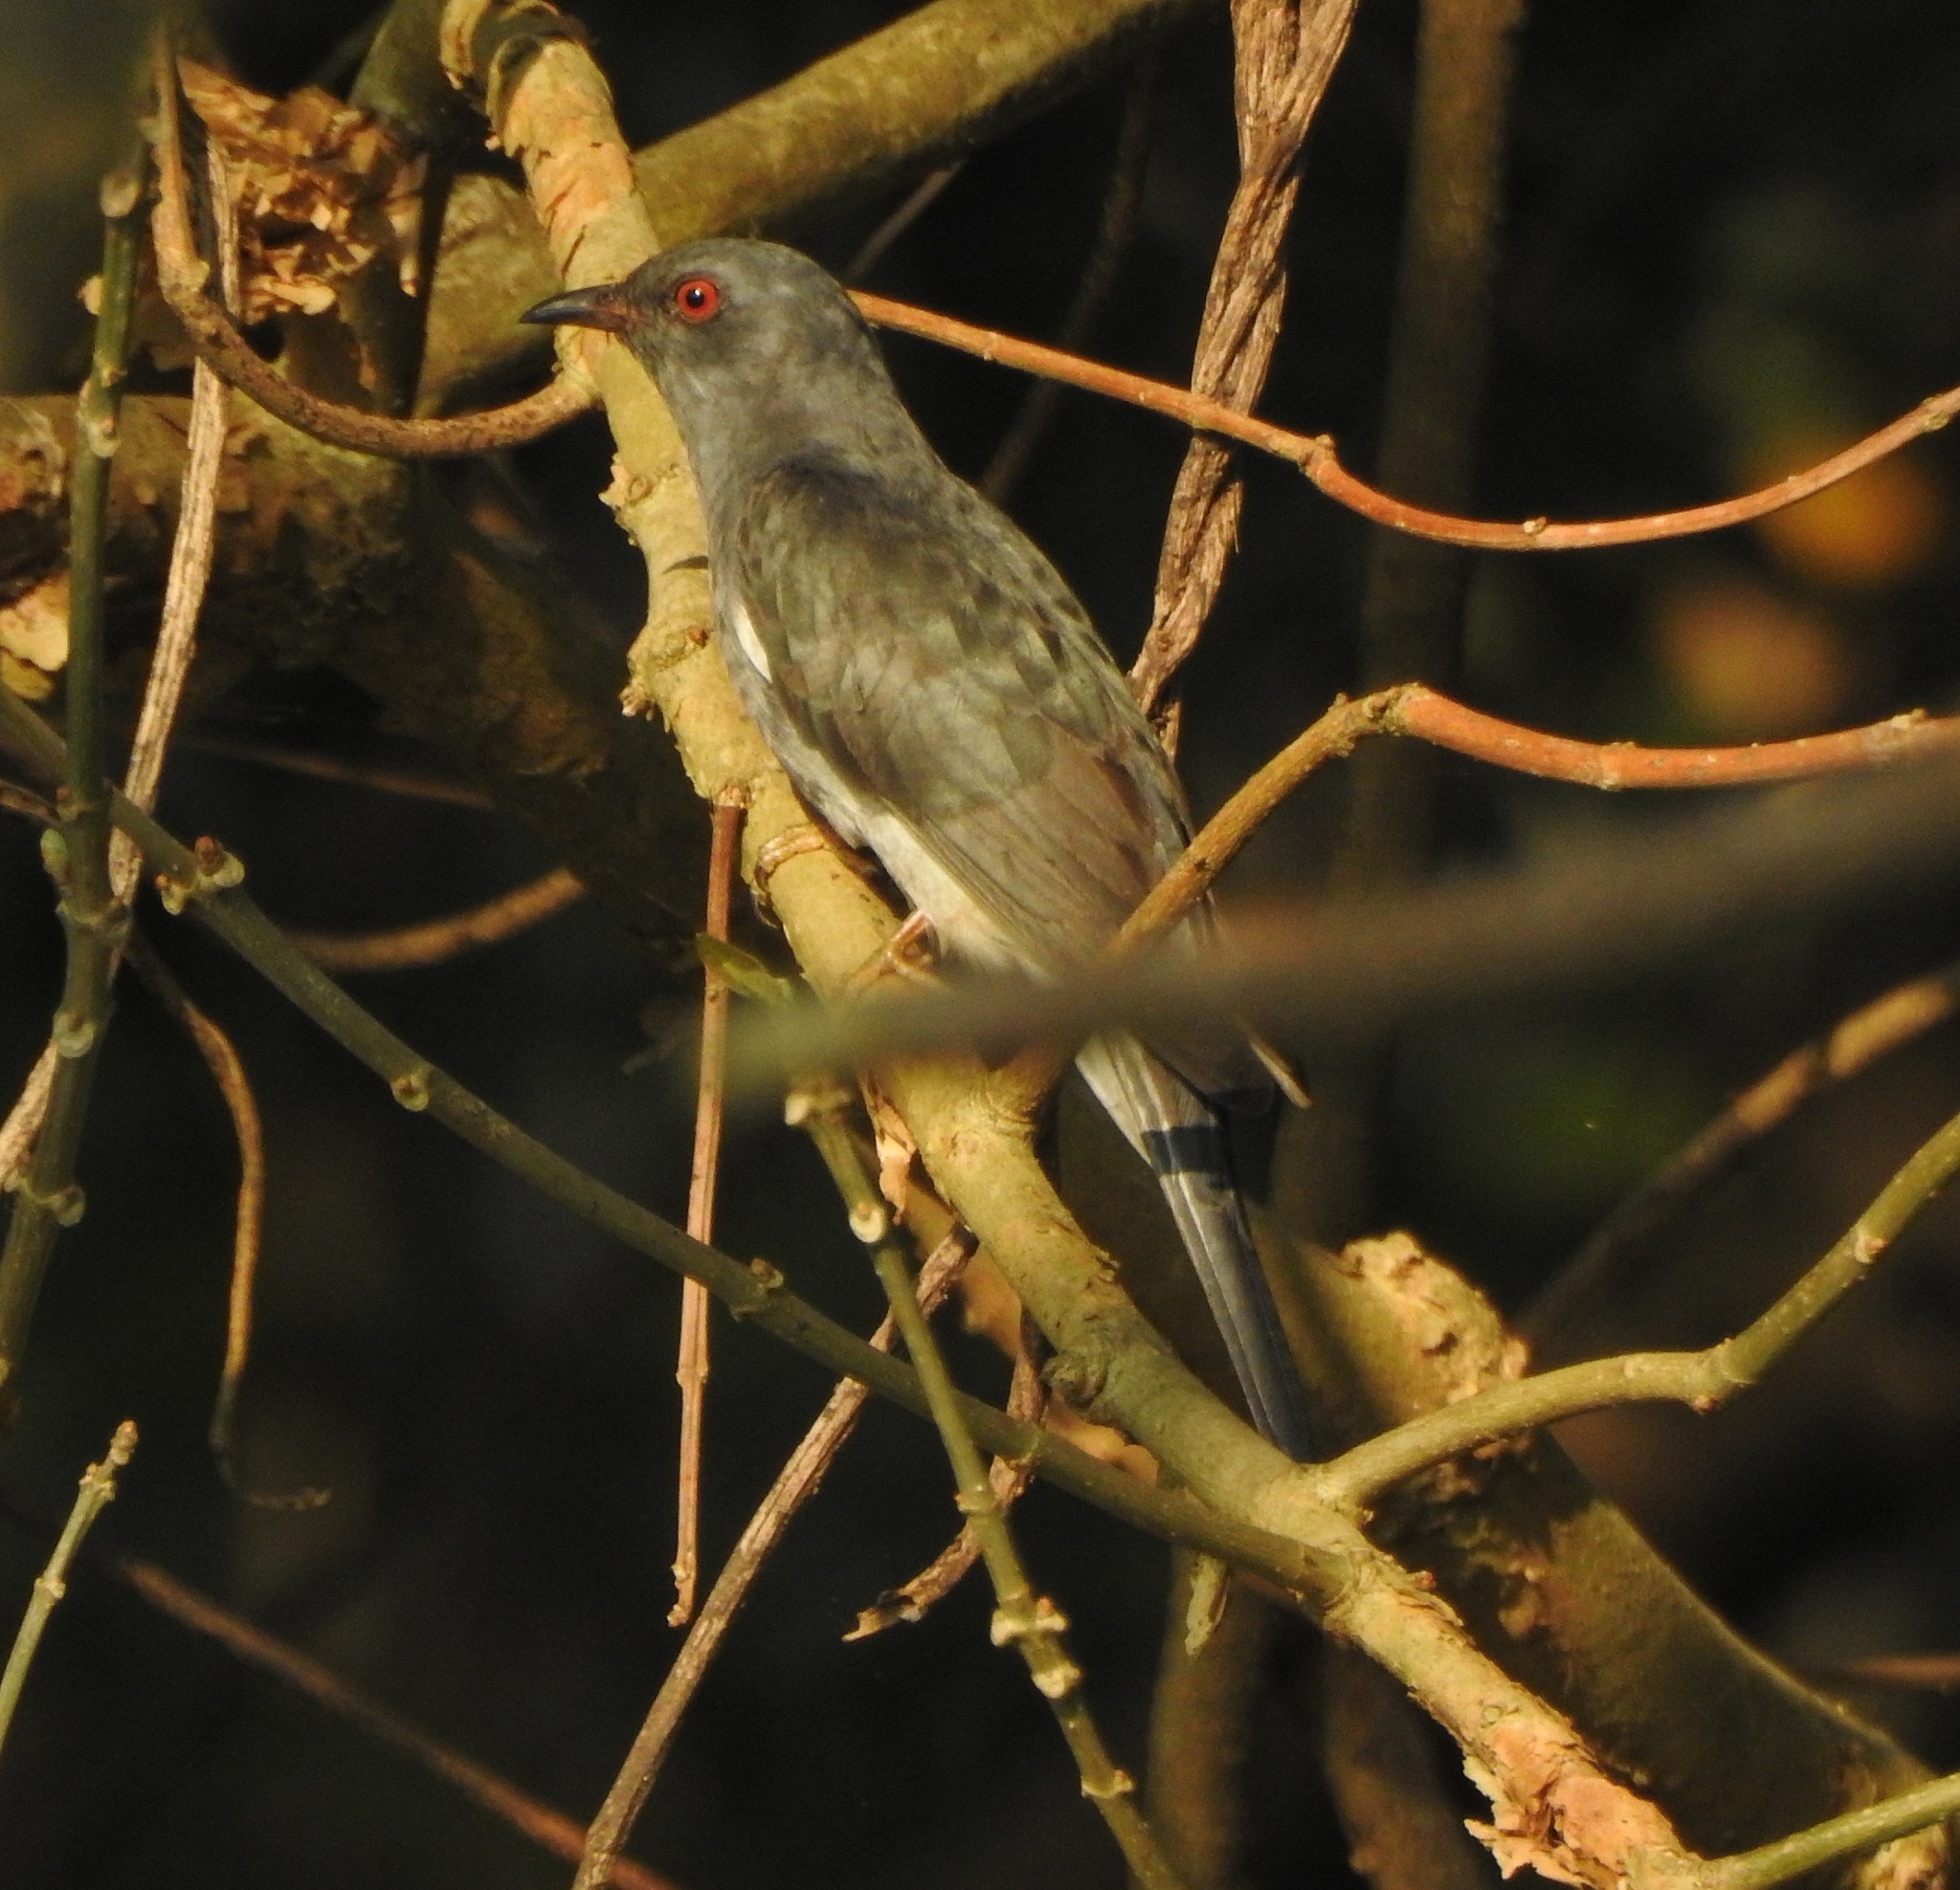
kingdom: Animalia
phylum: Chordata
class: Aves
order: Cuculiformes
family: Cuculidae
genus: Cacomantis
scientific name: Cacomantis passerinus
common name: Grey-bellied cuckoo
